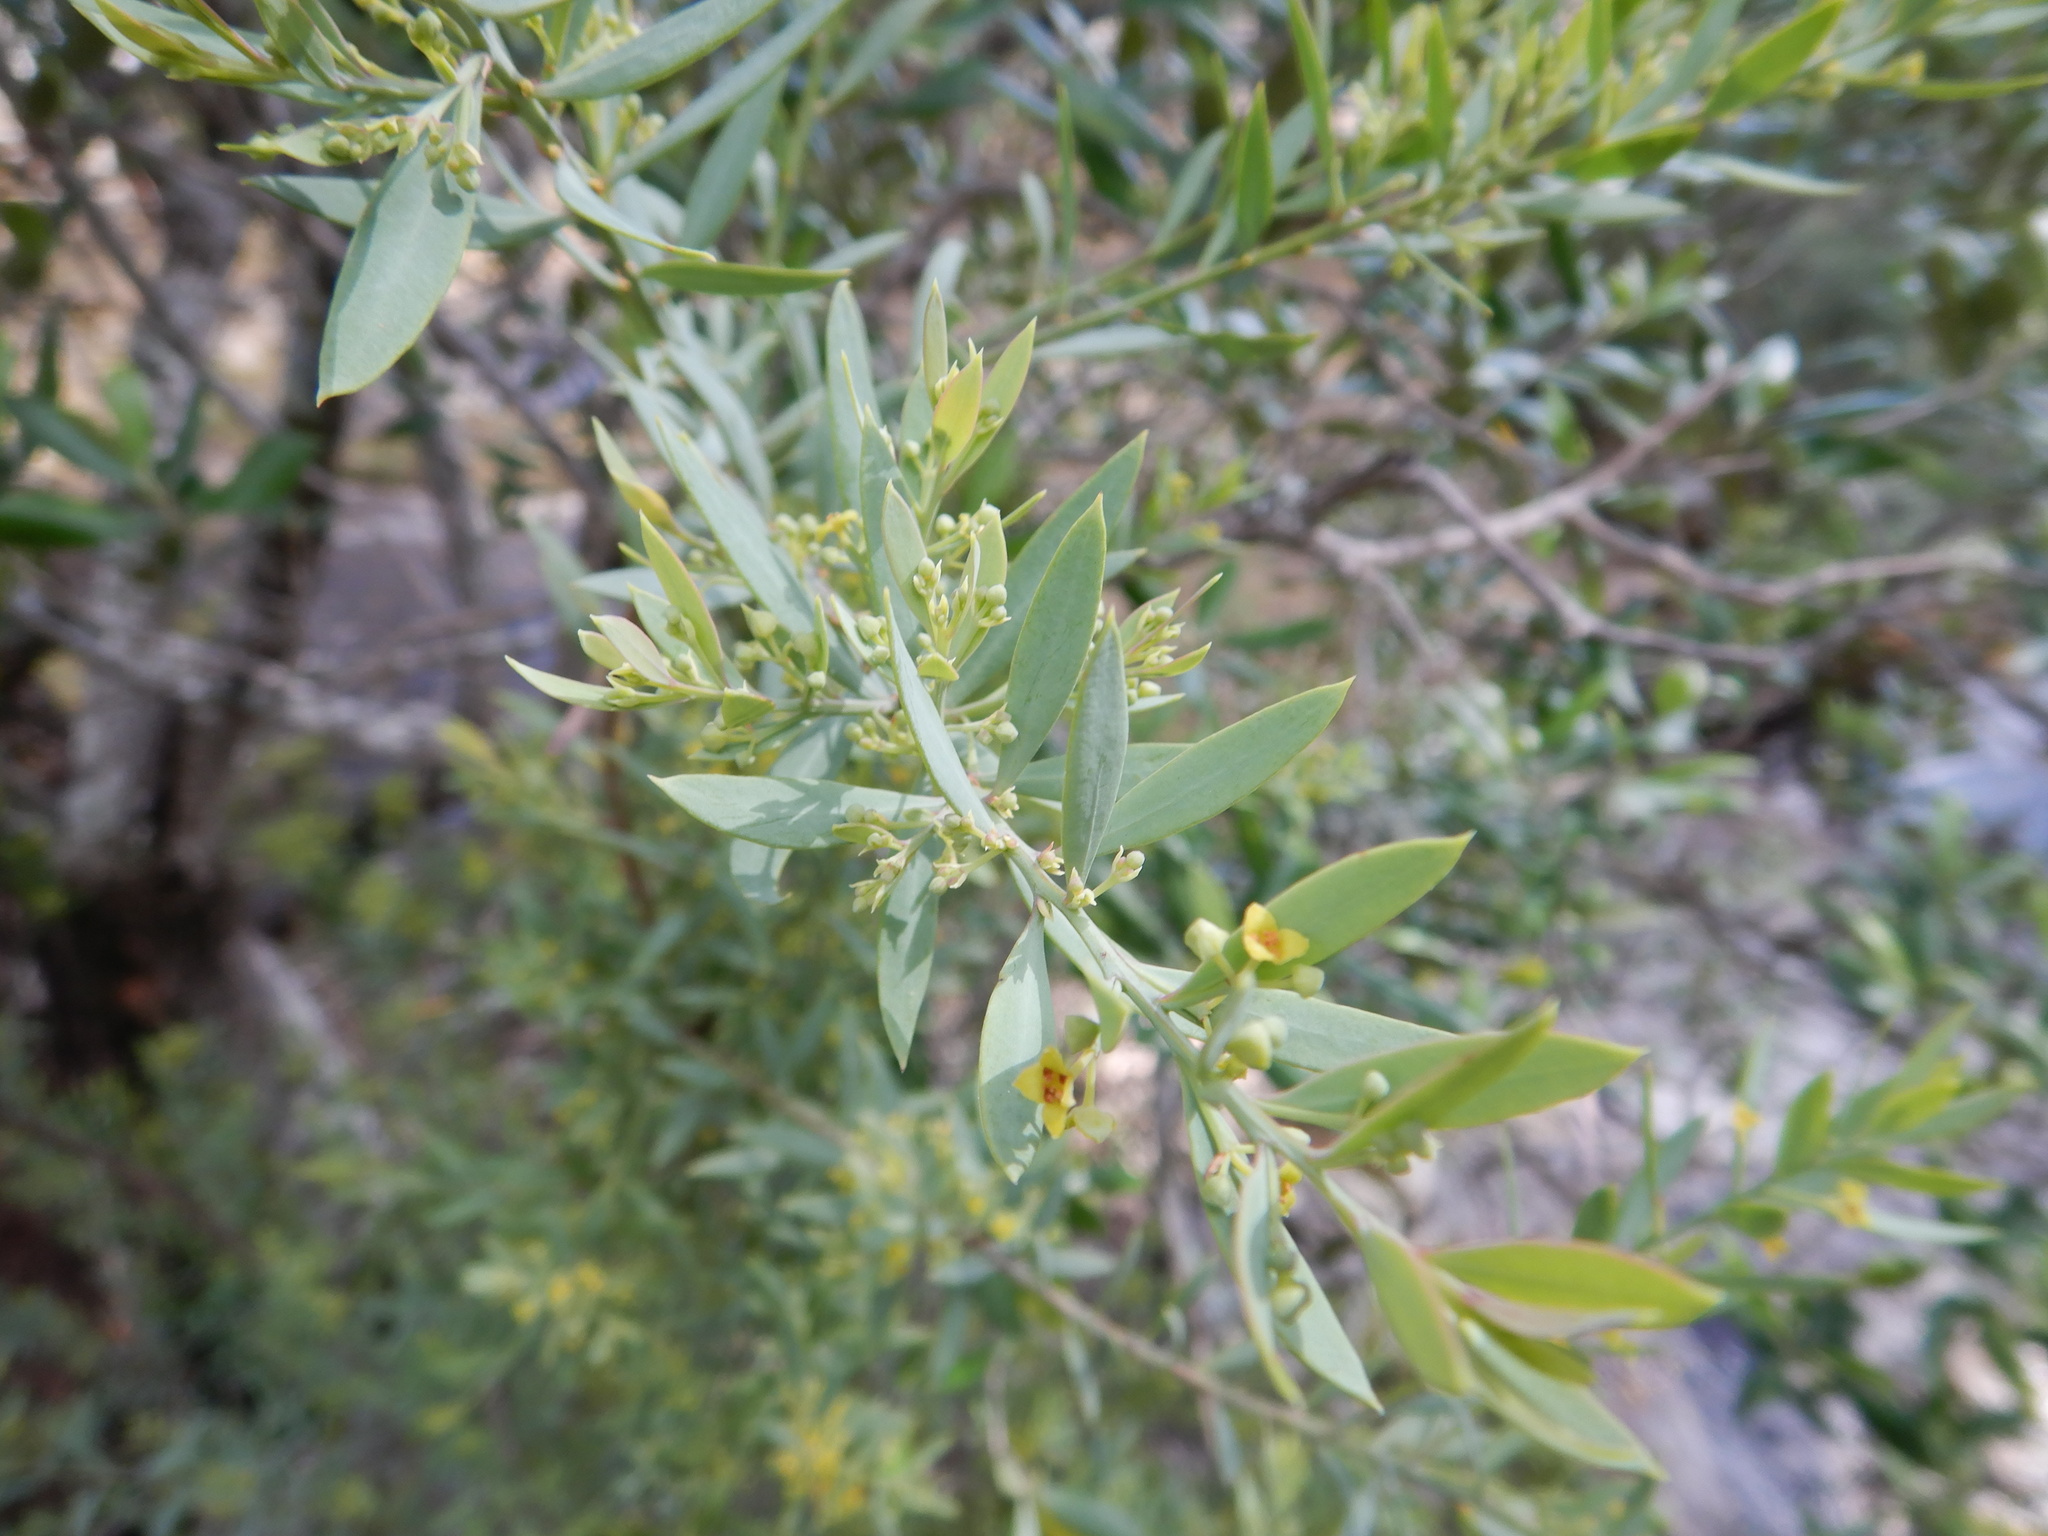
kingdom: Plantae
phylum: Tracheophyta
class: Magnoliopsida
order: Santalales
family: Santalaceae
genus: Osyris
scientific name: Osyris lanceolata
